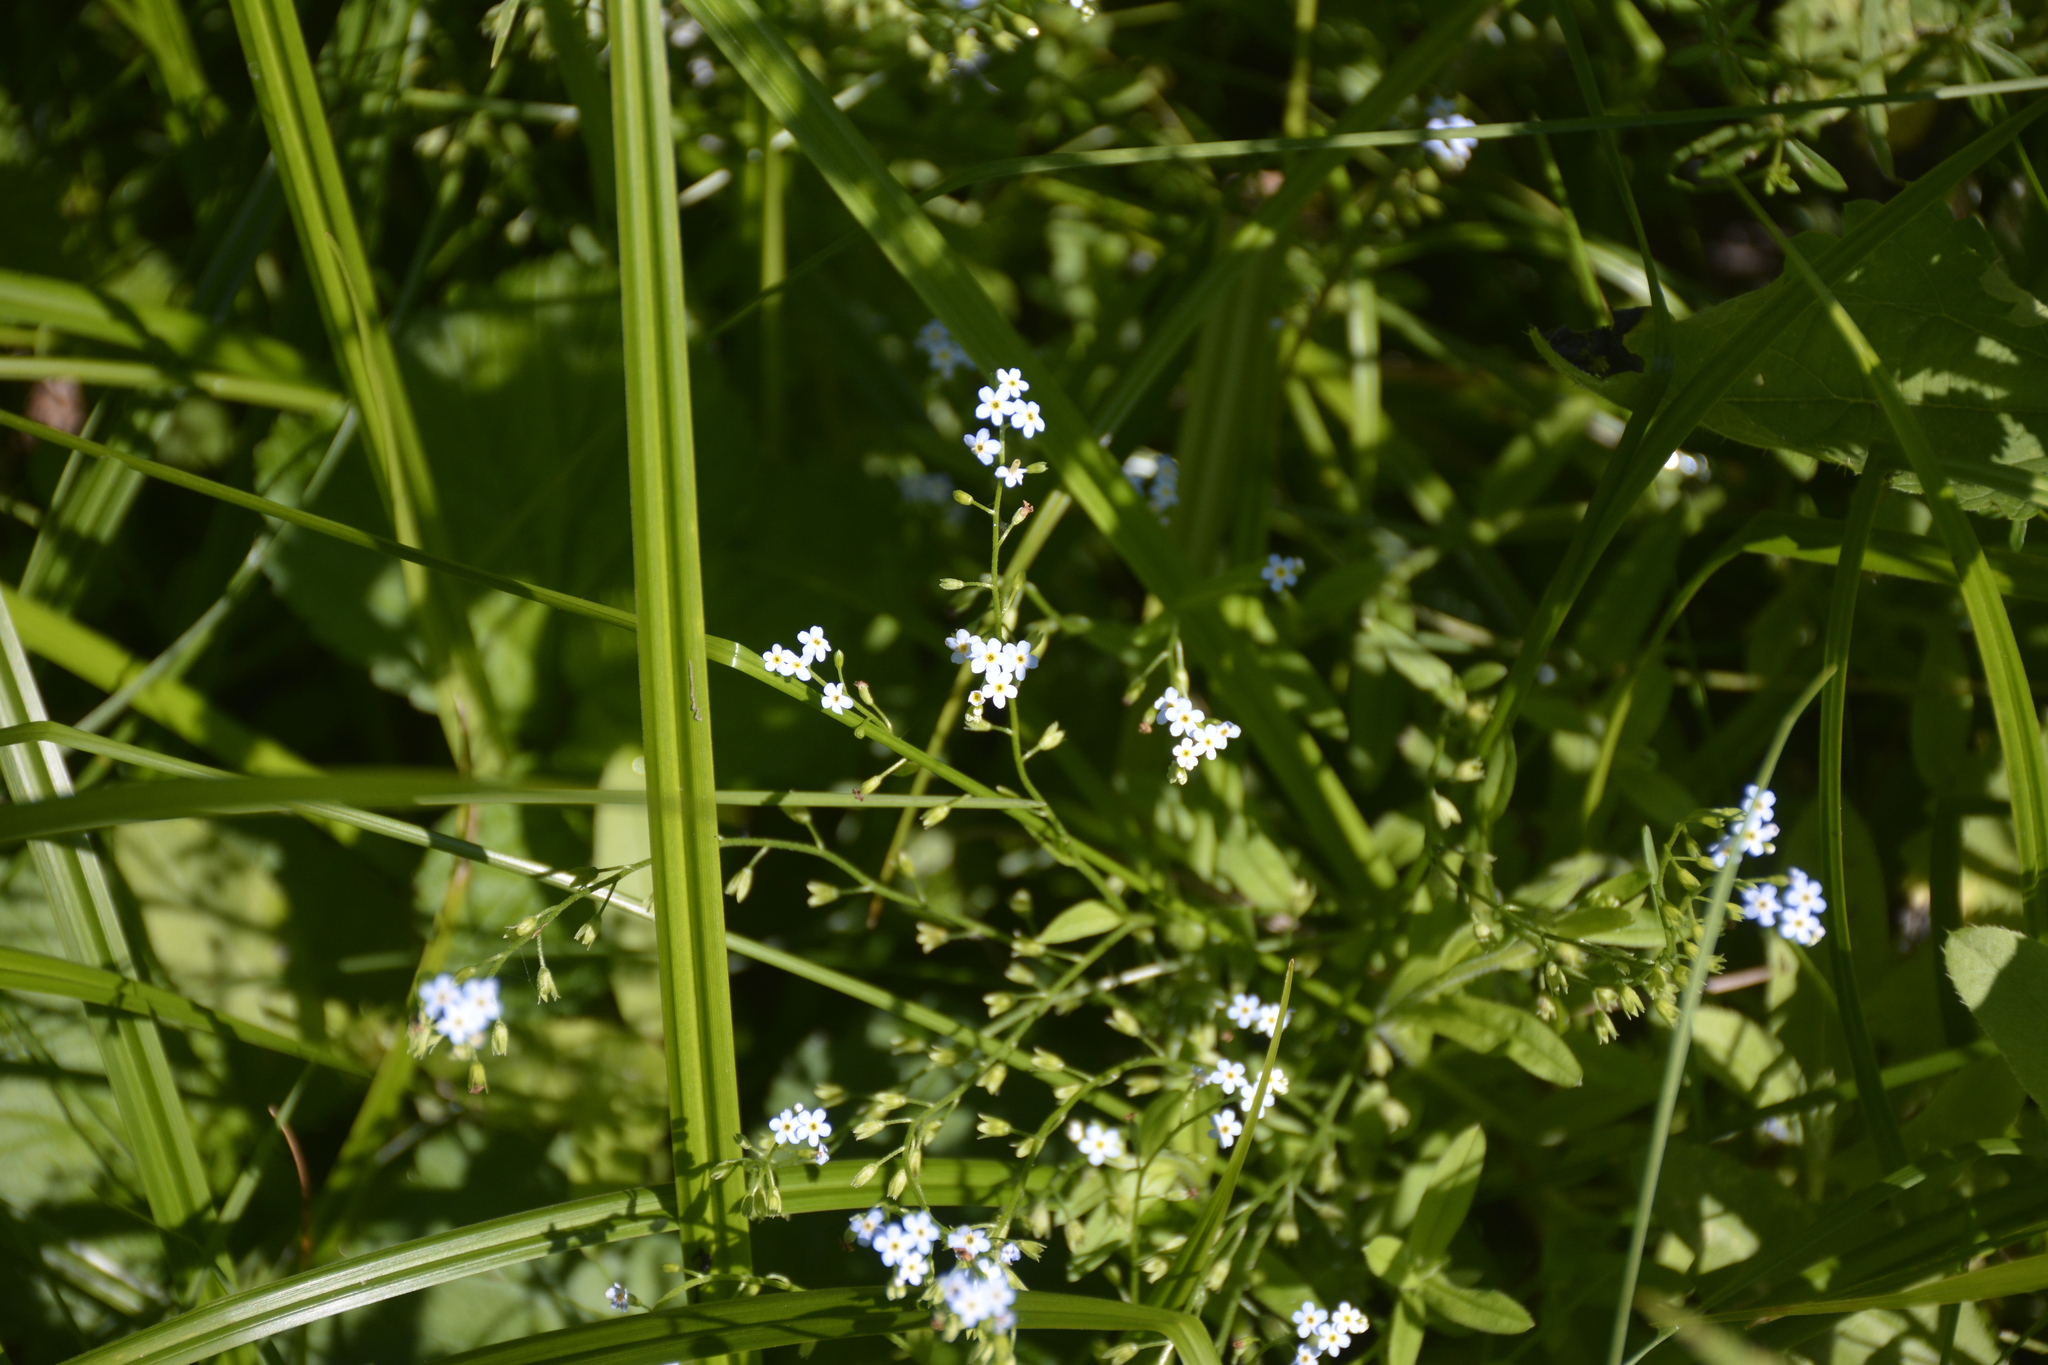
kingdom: Plantae
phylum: Tracheophyta
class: Magnoliopsida
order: Boraginales
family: Boraginaceae
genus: Myosotis
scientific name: Myosotis scorpioides
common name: Water forget-me-not
